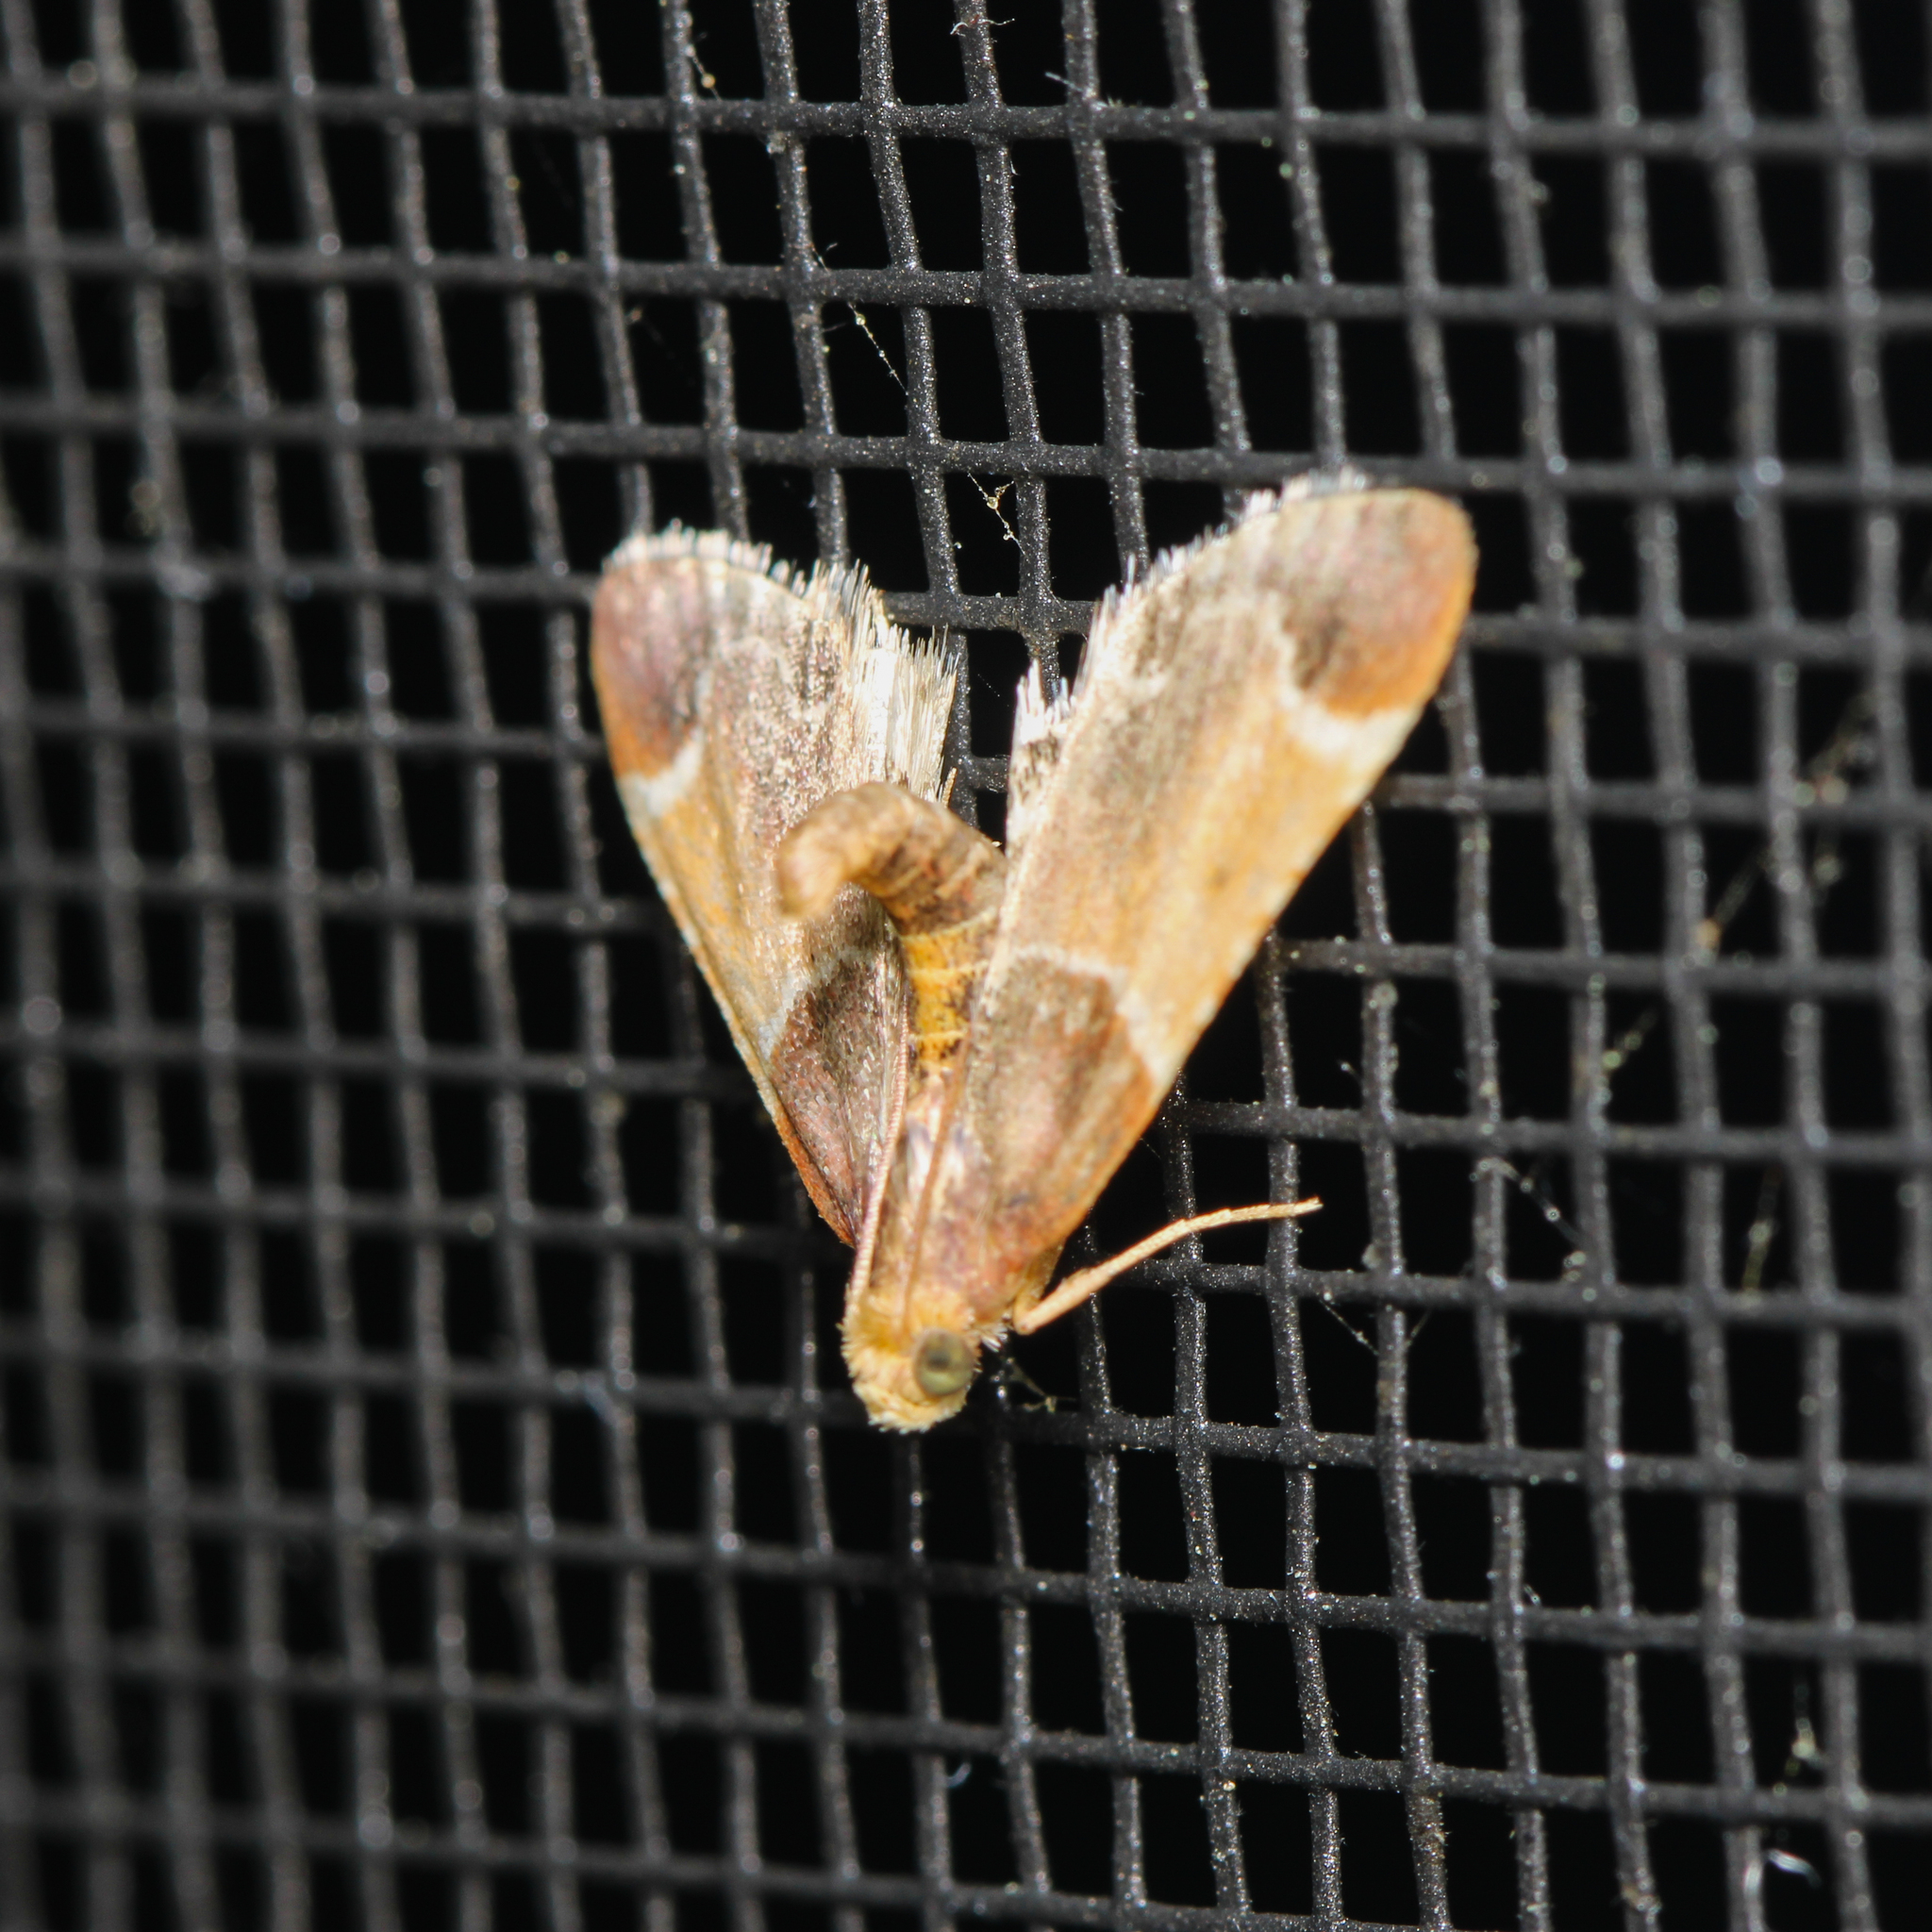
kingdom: Animalia
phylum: Arthropoda
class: Insecta
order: Lepidoptera
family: Pyralidae
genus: Pyralis
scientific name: Pyralis farinalis
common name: Meal moth
